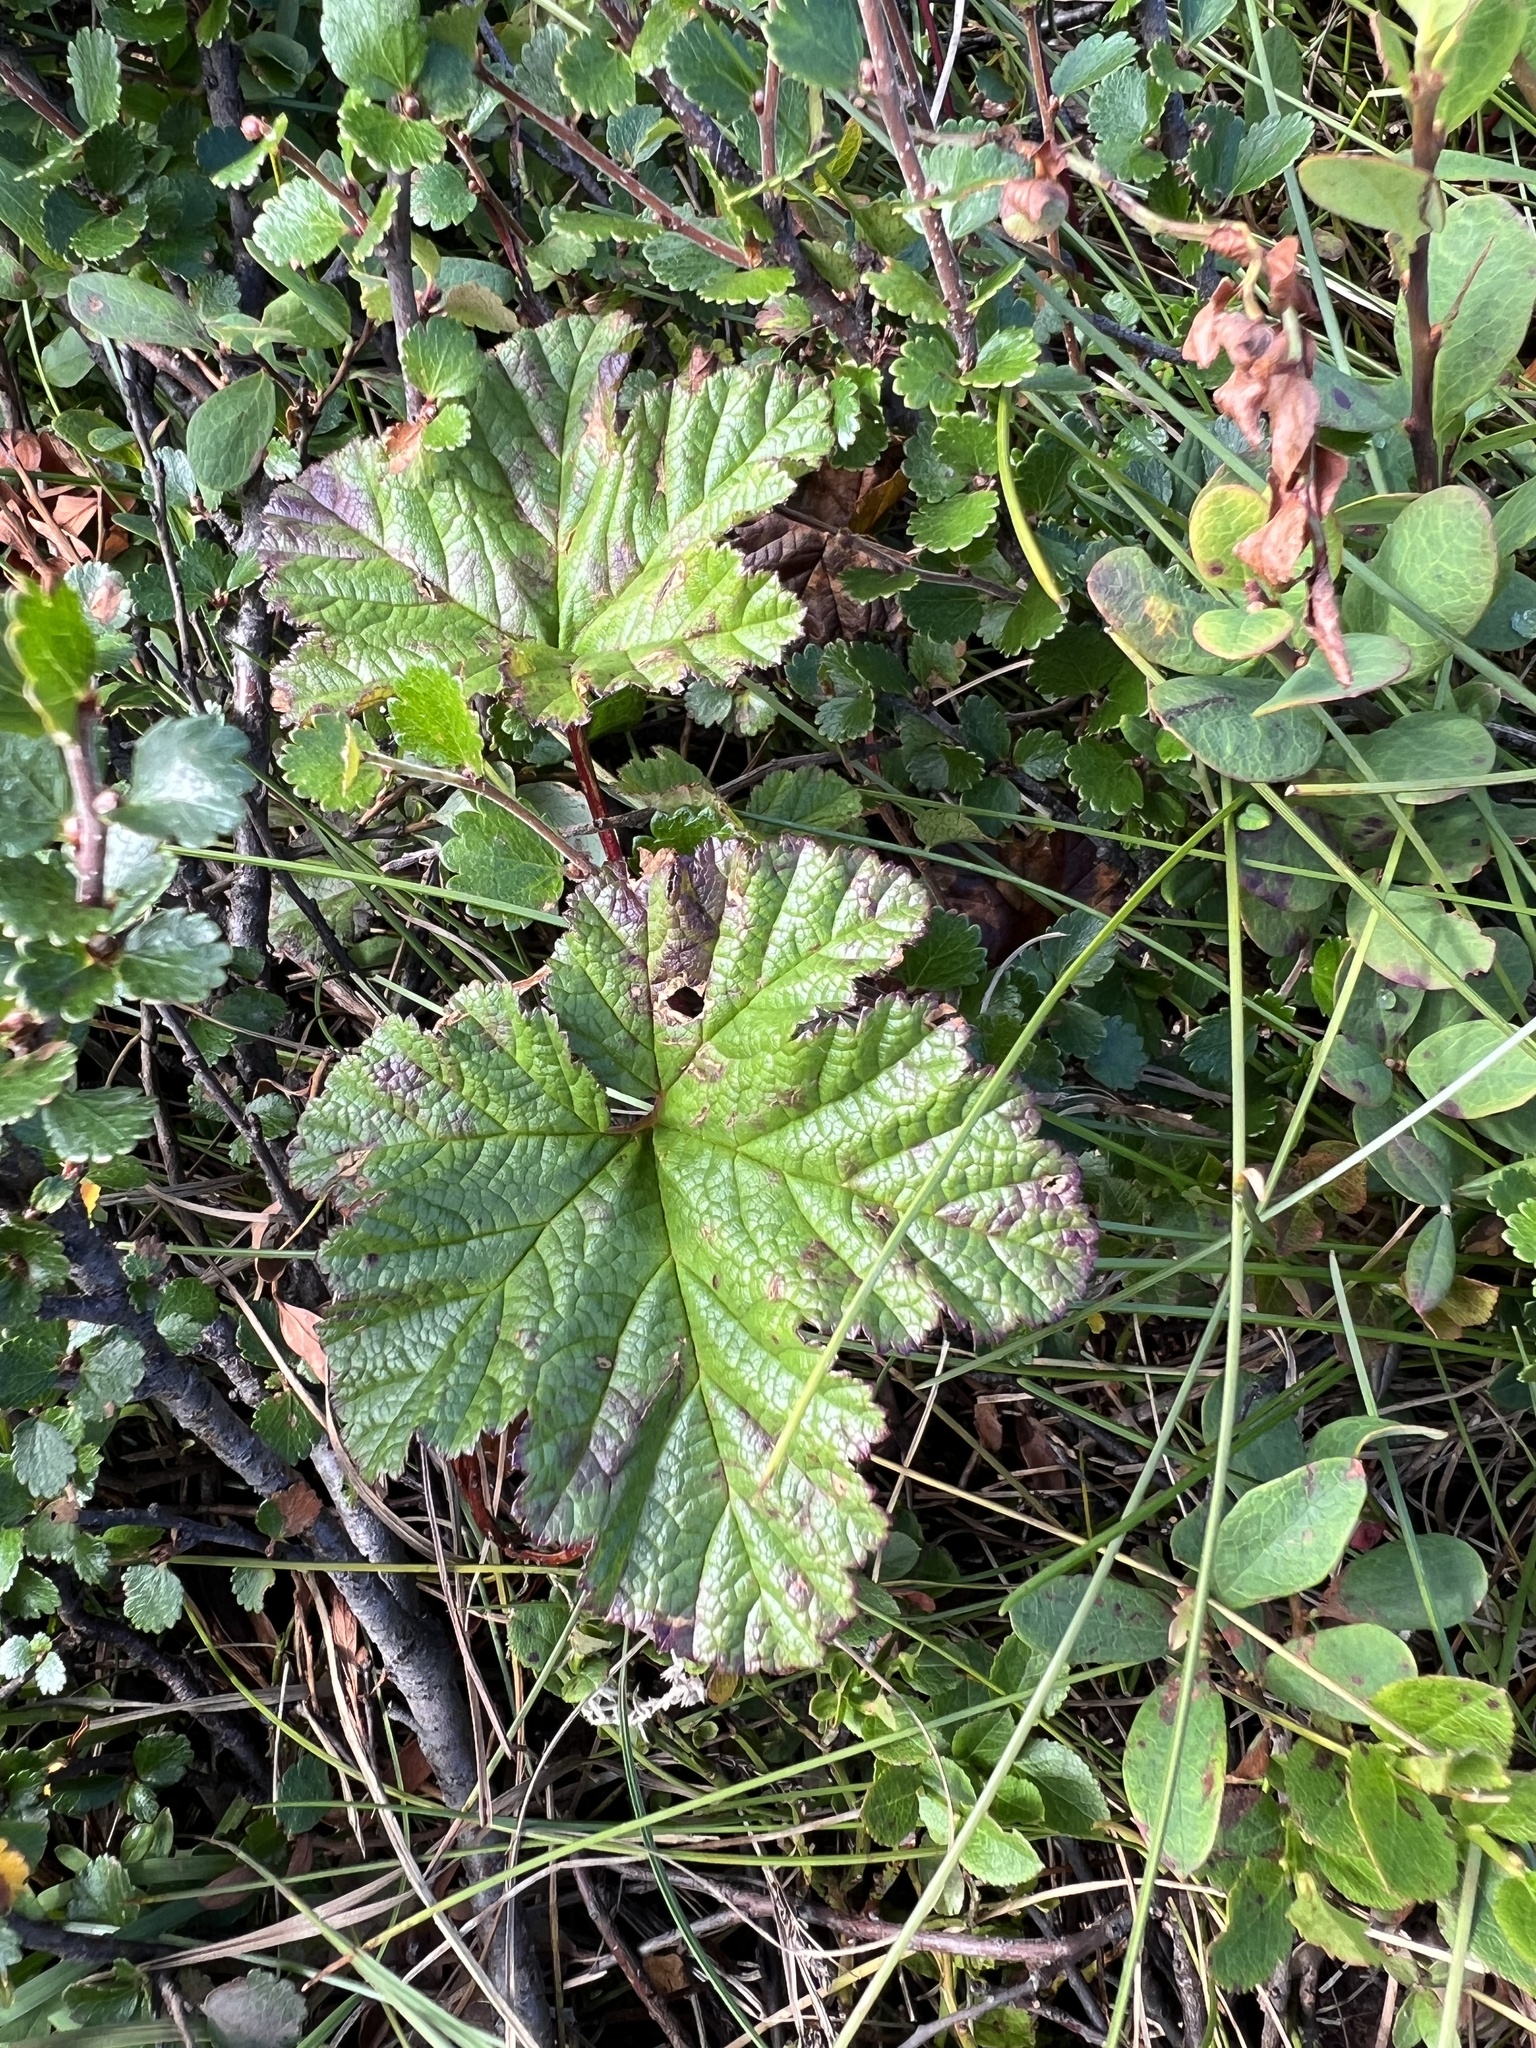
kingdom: Plantae
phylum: Tracheophyta
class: Magnoliopsida
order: Rosales
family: Rosaceae
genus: Rubus
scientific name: Rubus chamaemorus
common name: Cloudberry
